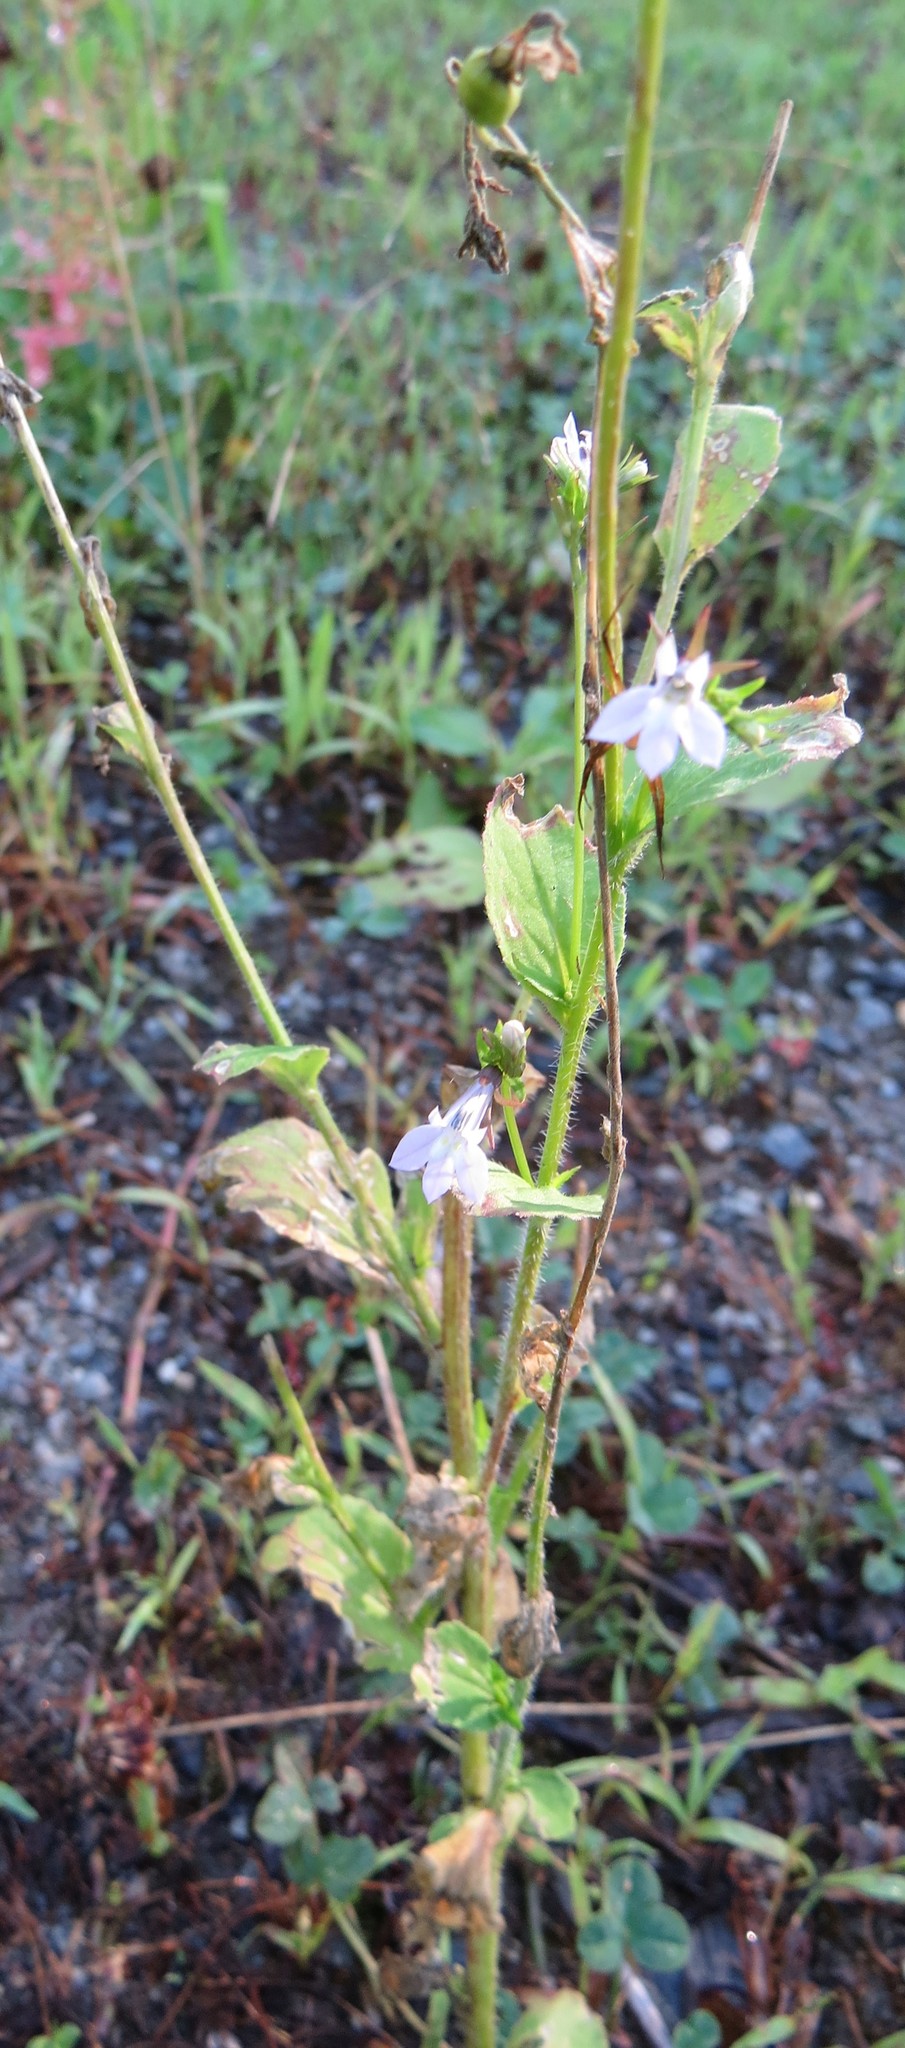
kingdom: Plantae
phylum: Tracheophyta
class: Magnoliopsida
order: Asterales
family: Campanulaceae
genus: Lobelia
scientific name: Lobelia inflata
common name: Indian tobacco
